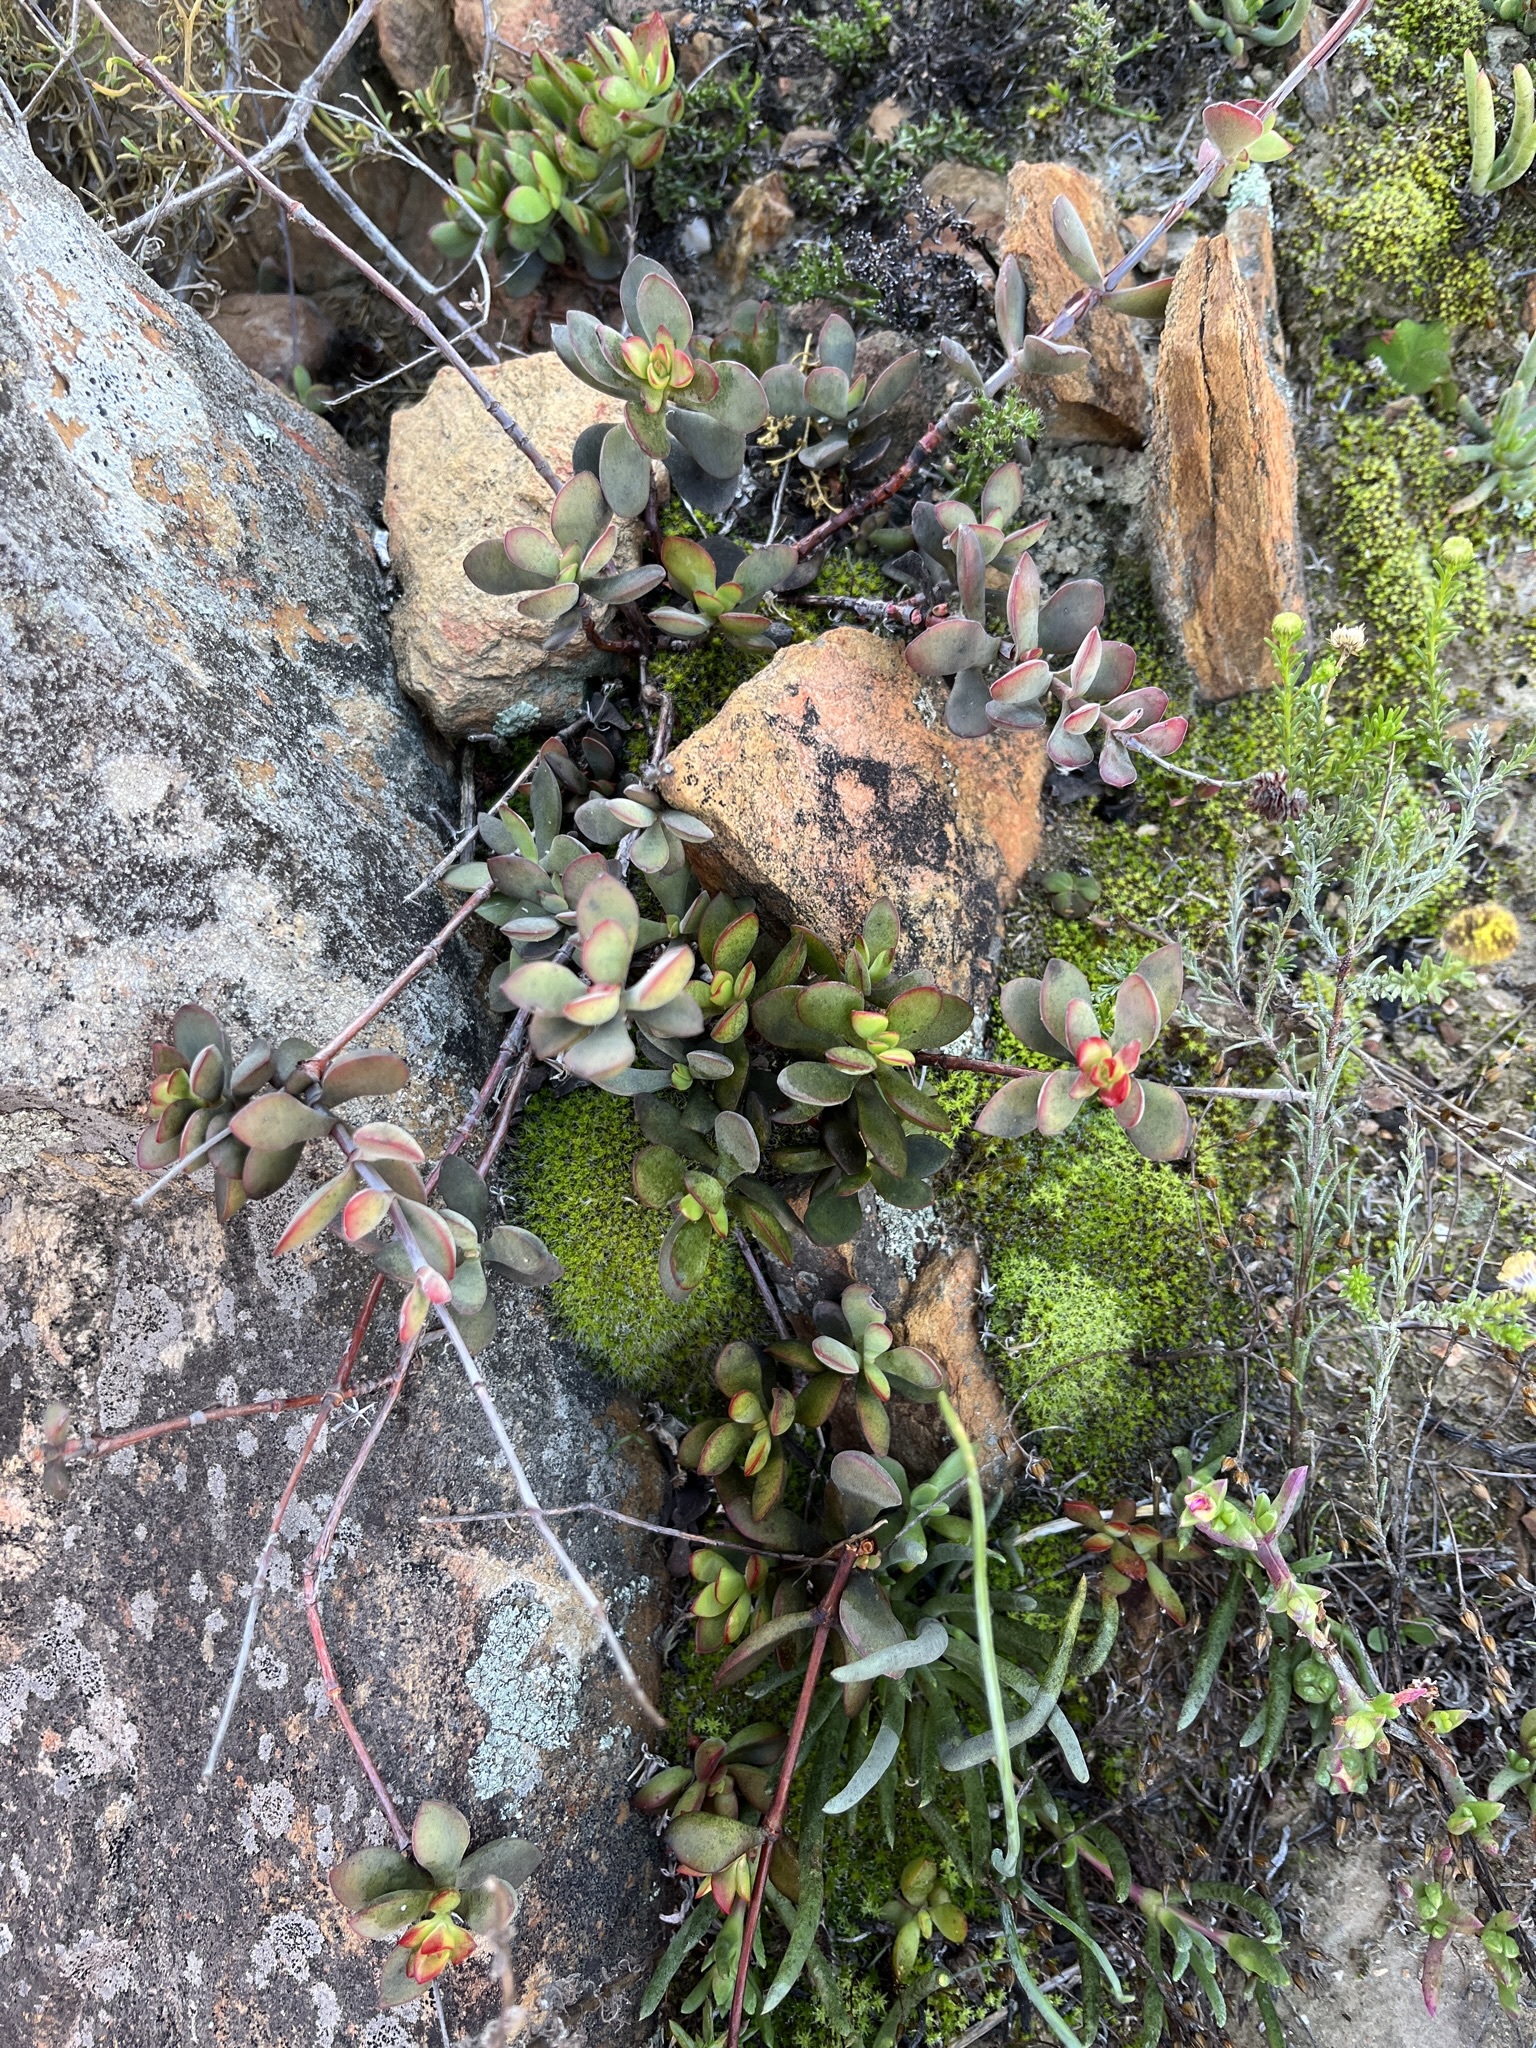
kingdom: Plantae
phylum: Tracheophyta
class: Magnoliopsida
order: Saxifragales
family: Crassulaceae
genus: Crassula
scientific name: Crassula atropurpurea
